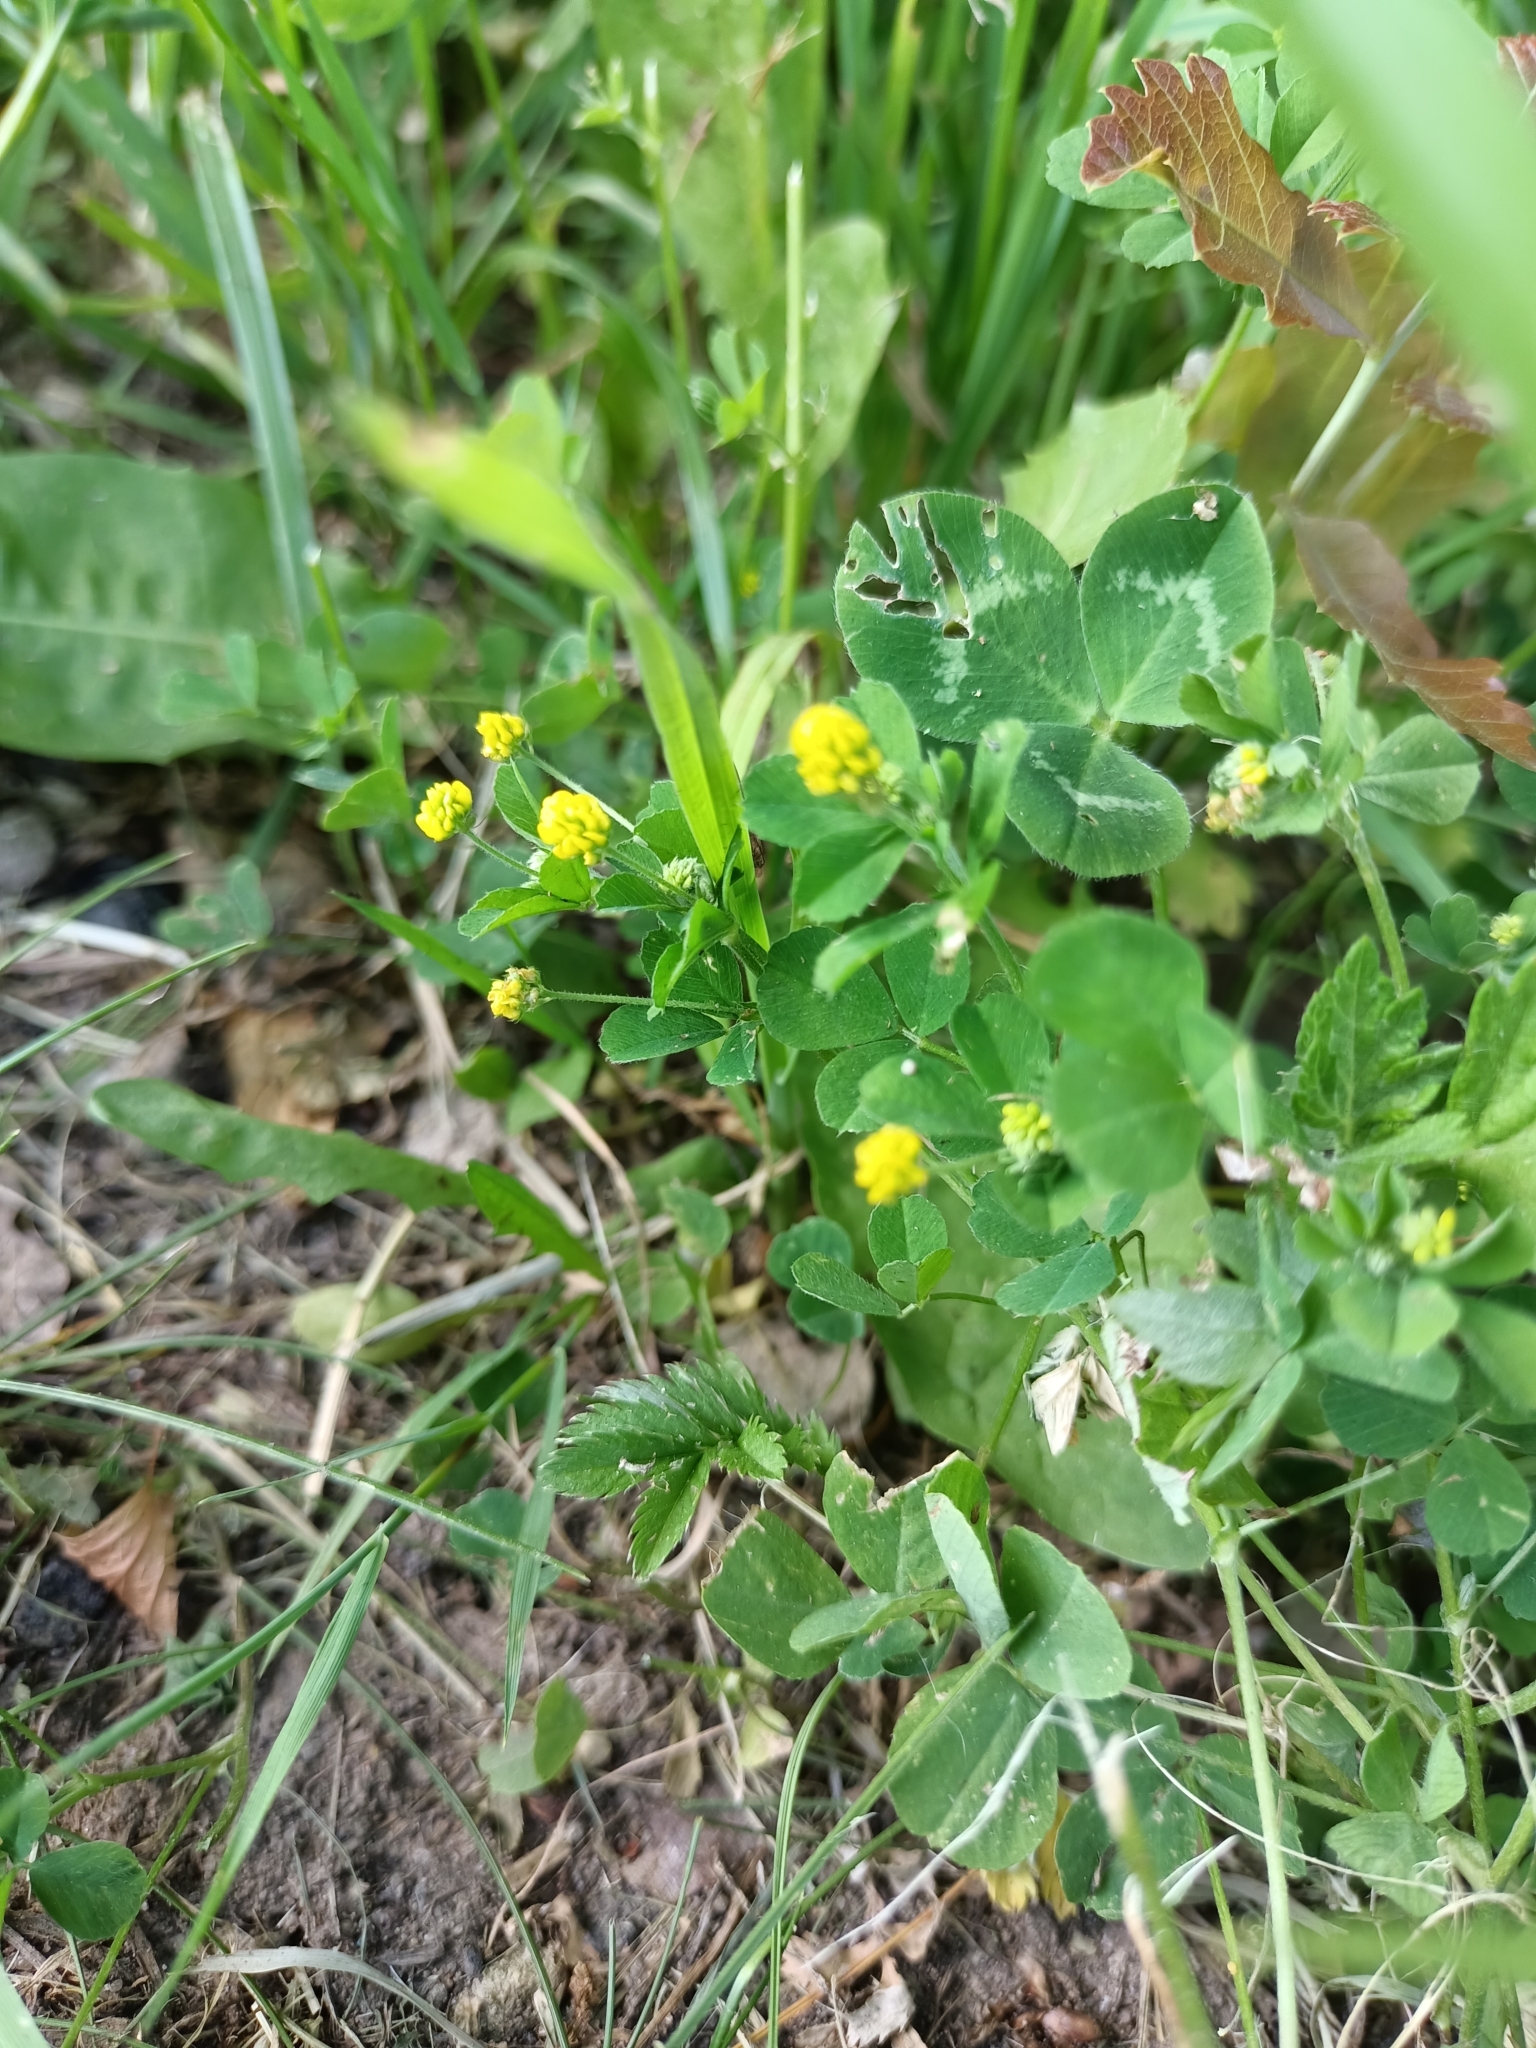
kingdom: Plantae
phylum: Tracheophyta
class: Magnoliopsida
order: Fabales
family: Fabaceae
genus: Medicago
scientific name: Medicago lupulina
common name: Black medick
